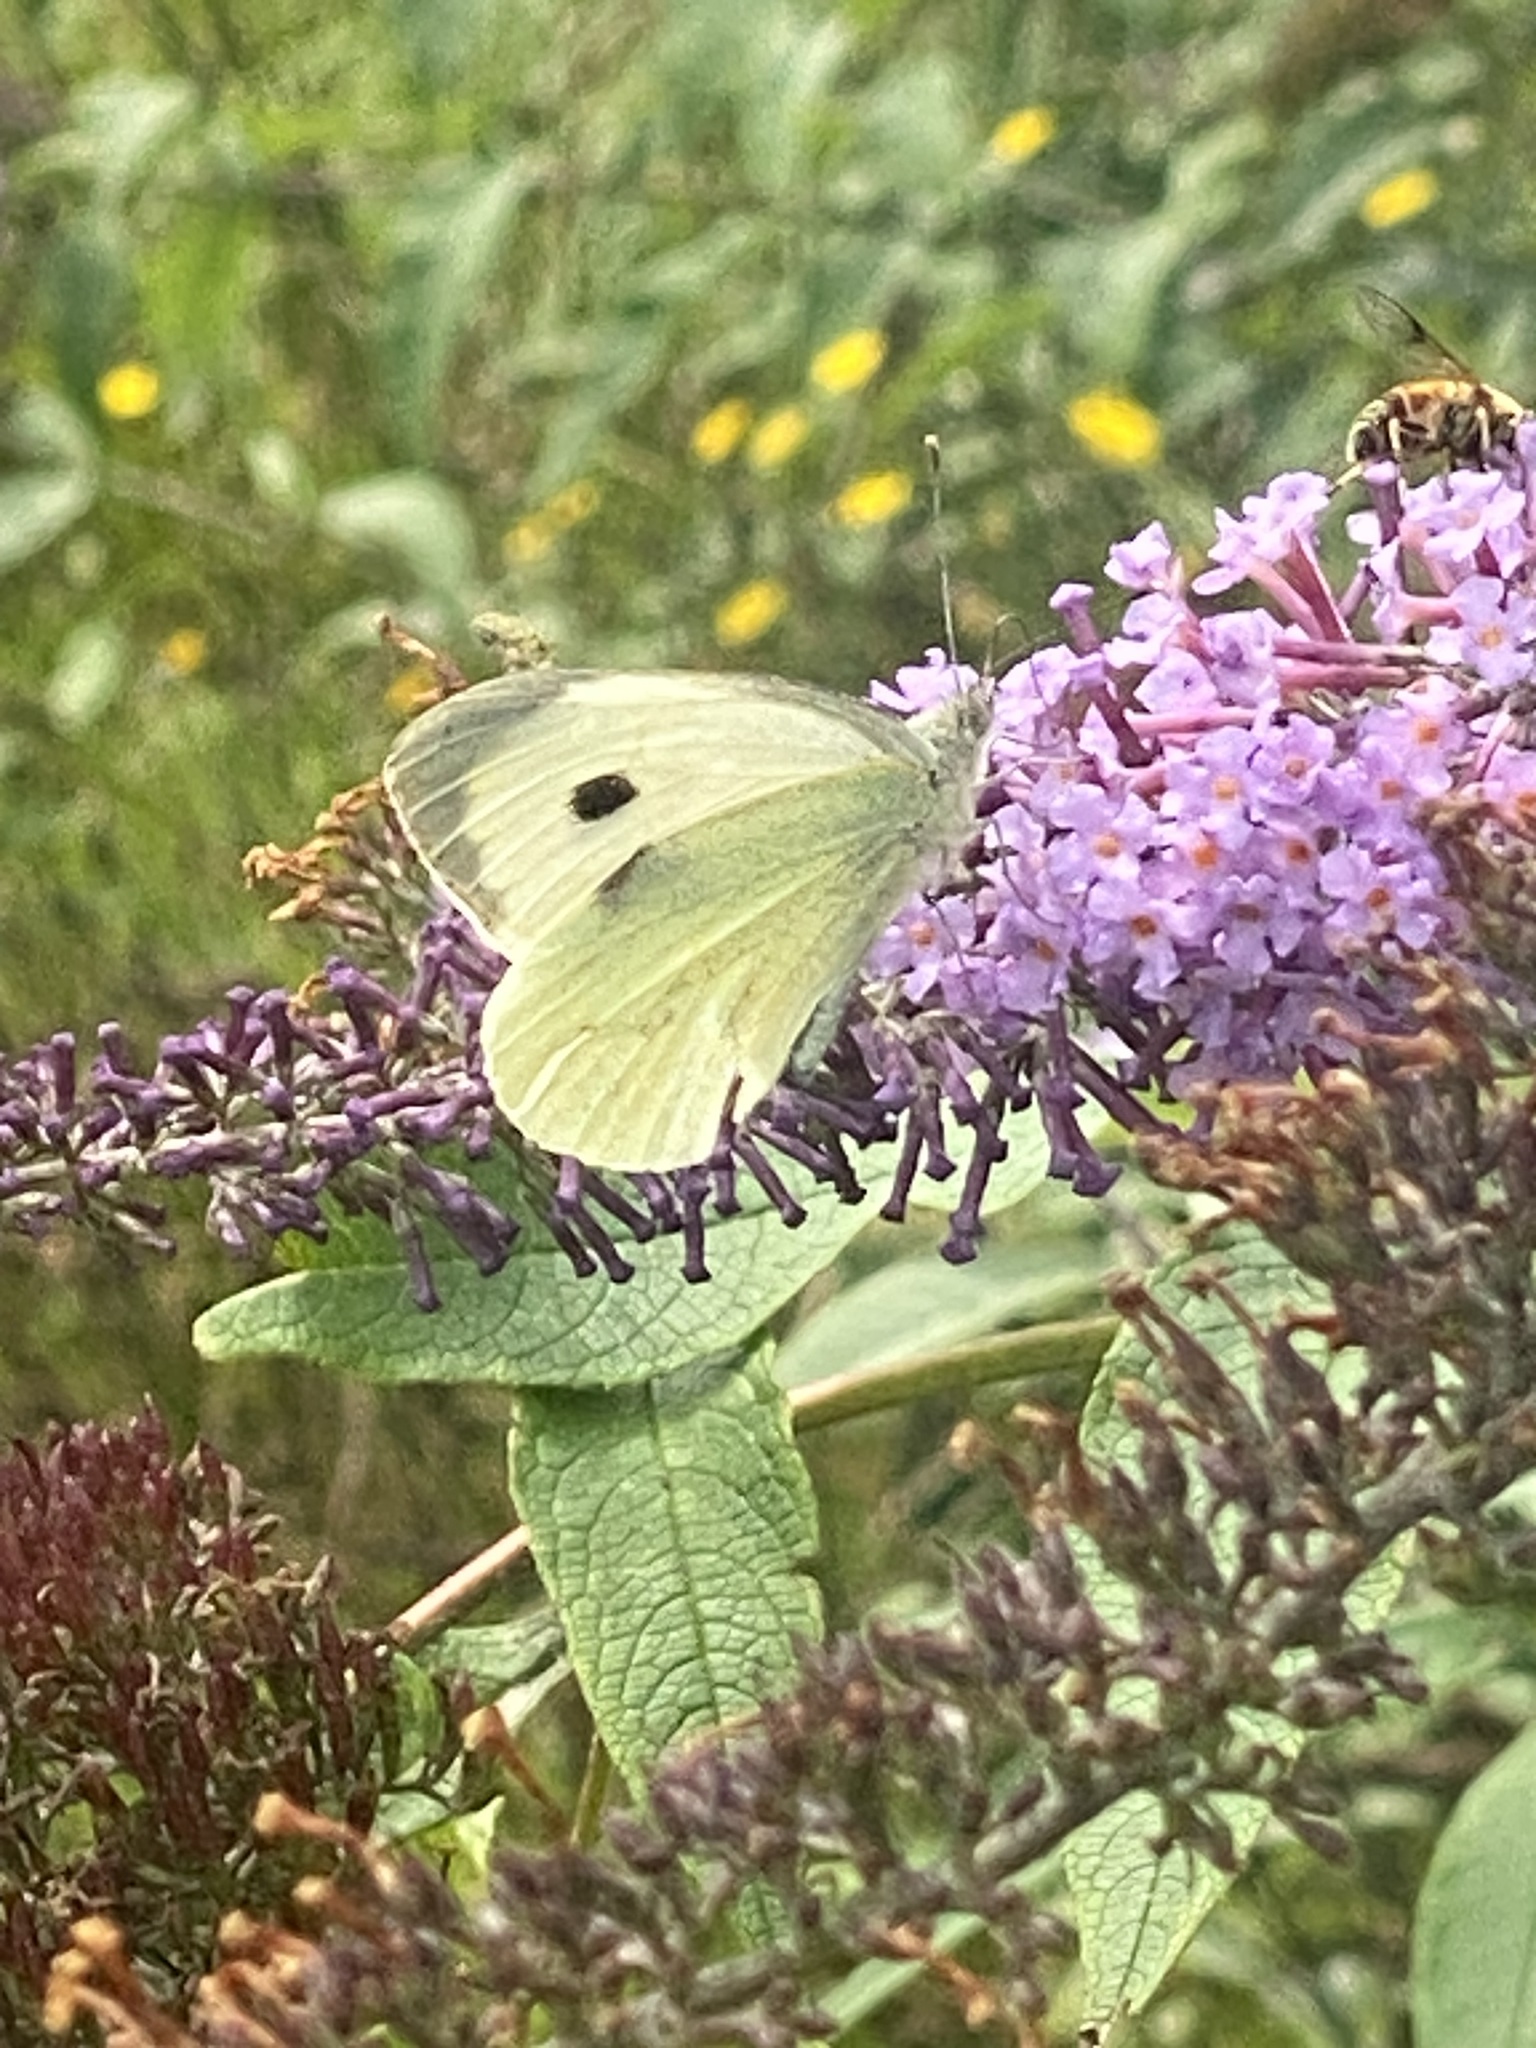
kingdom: Animalia
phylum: Arthropoda
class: Insecta
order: Lepidoptera
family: Pieridae
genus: Pieris
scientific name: Pieris brassicae
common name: Large white
